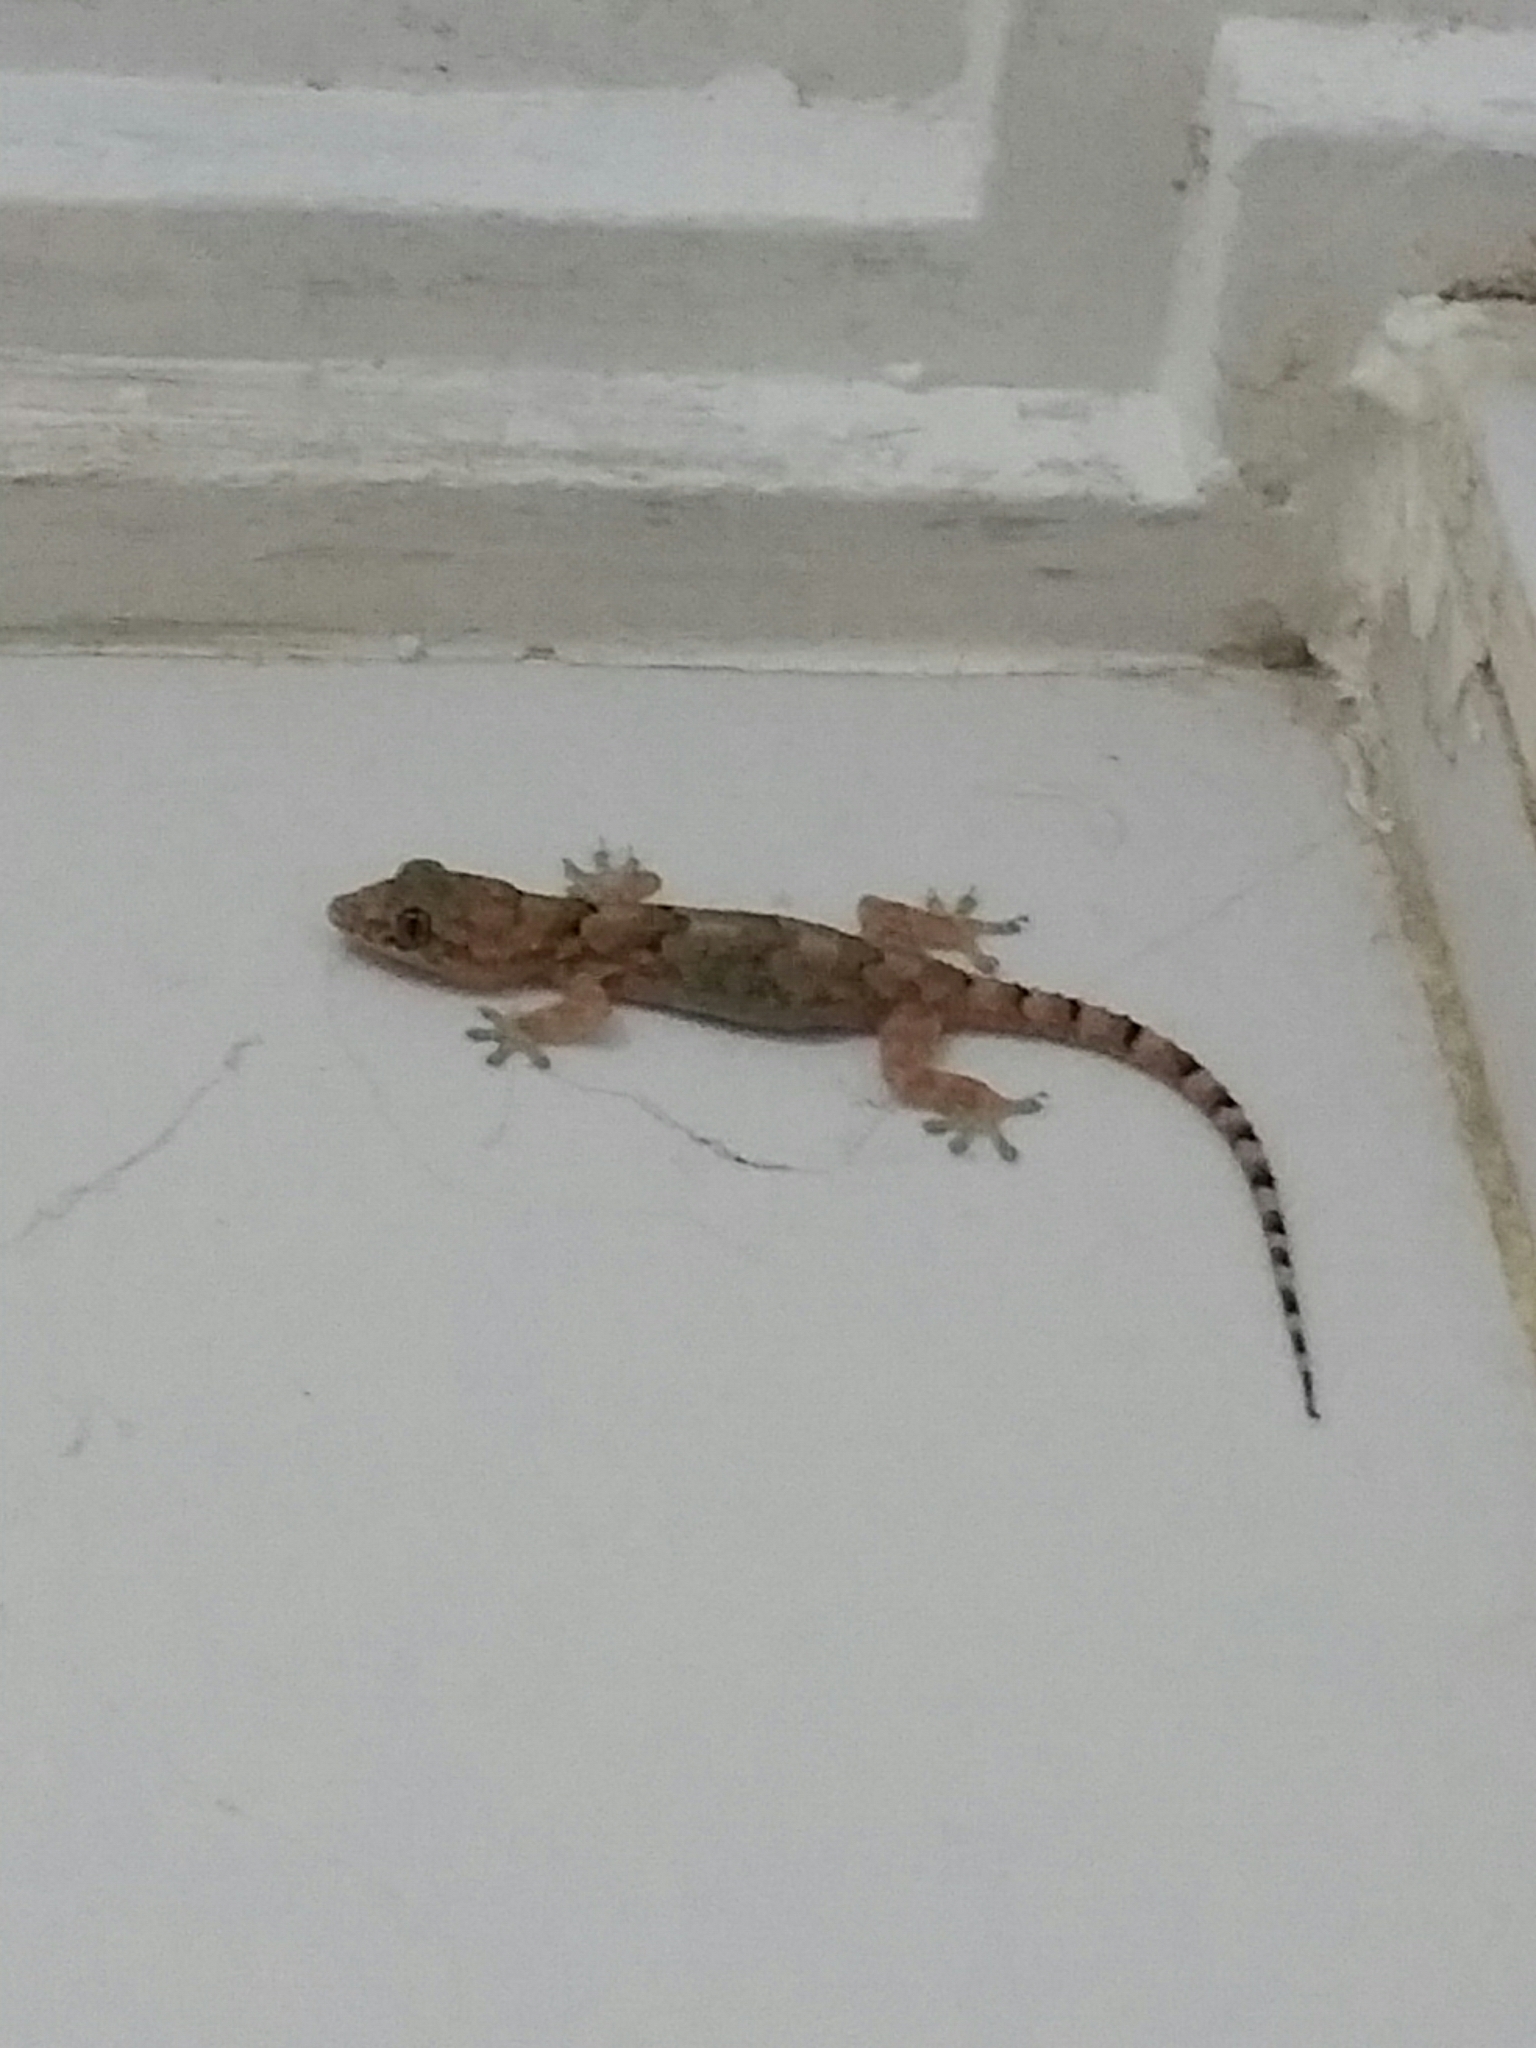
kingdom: Animalia
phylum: Chordata
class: Squamata
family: Gekkonidae
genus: Hemidactylus
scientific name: Hemidactylus mabouia
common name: House gecko
